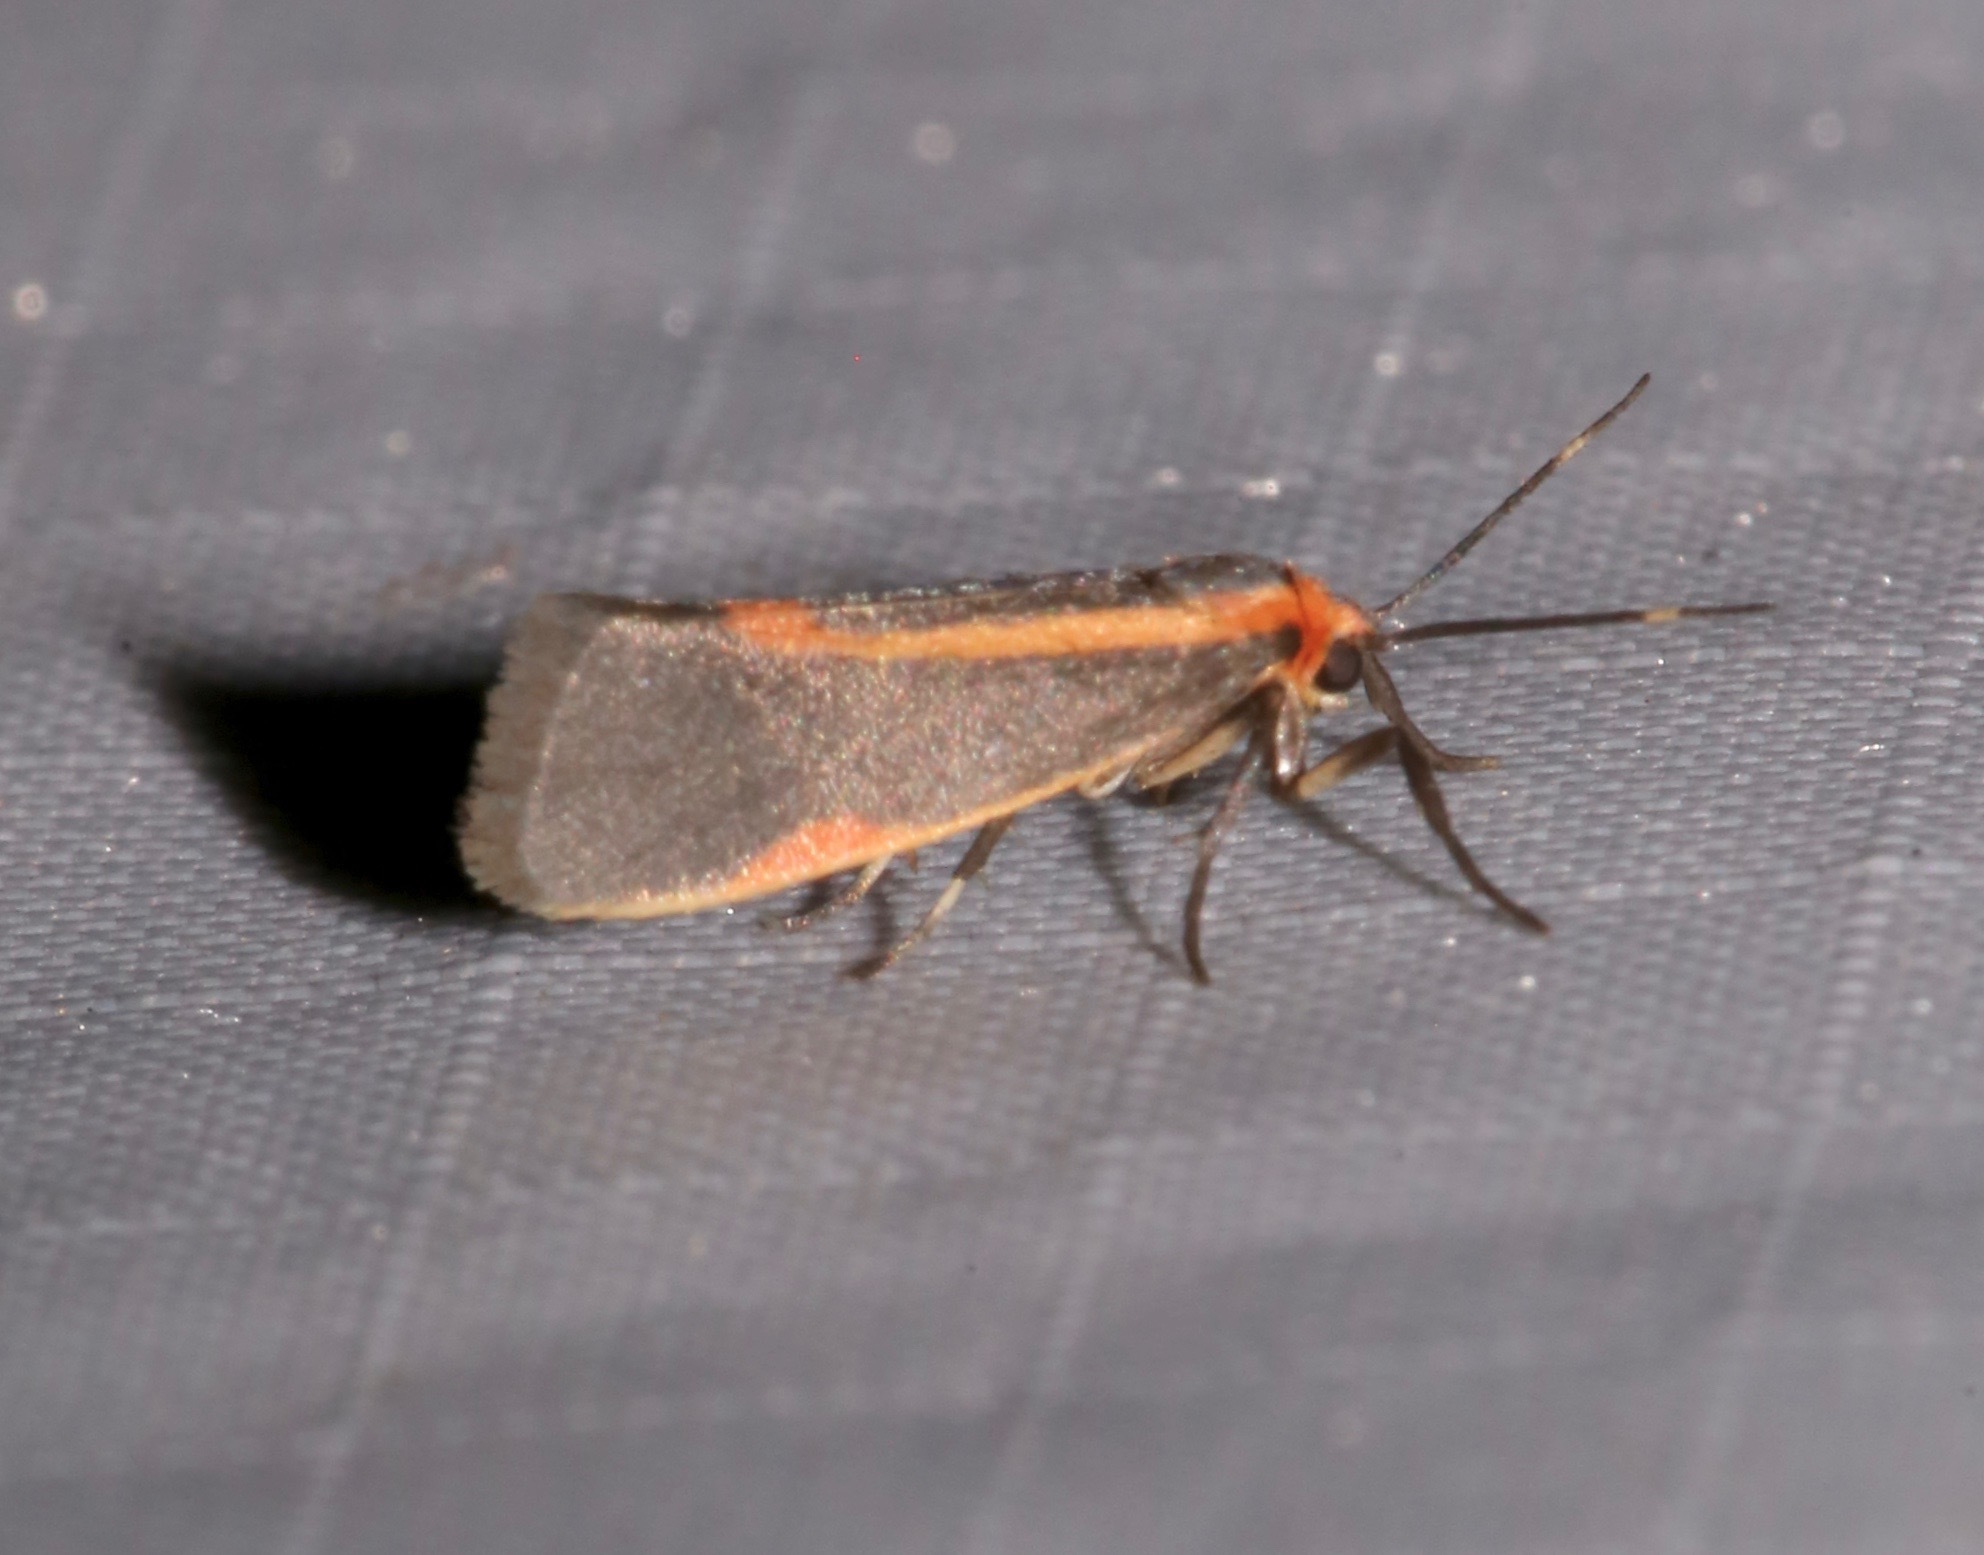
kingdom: Animalia
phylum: Arthropoda
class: Insecta
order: Lepidoptera
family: Erebidae
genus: Cisthene
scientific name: Cisthene subjecta
